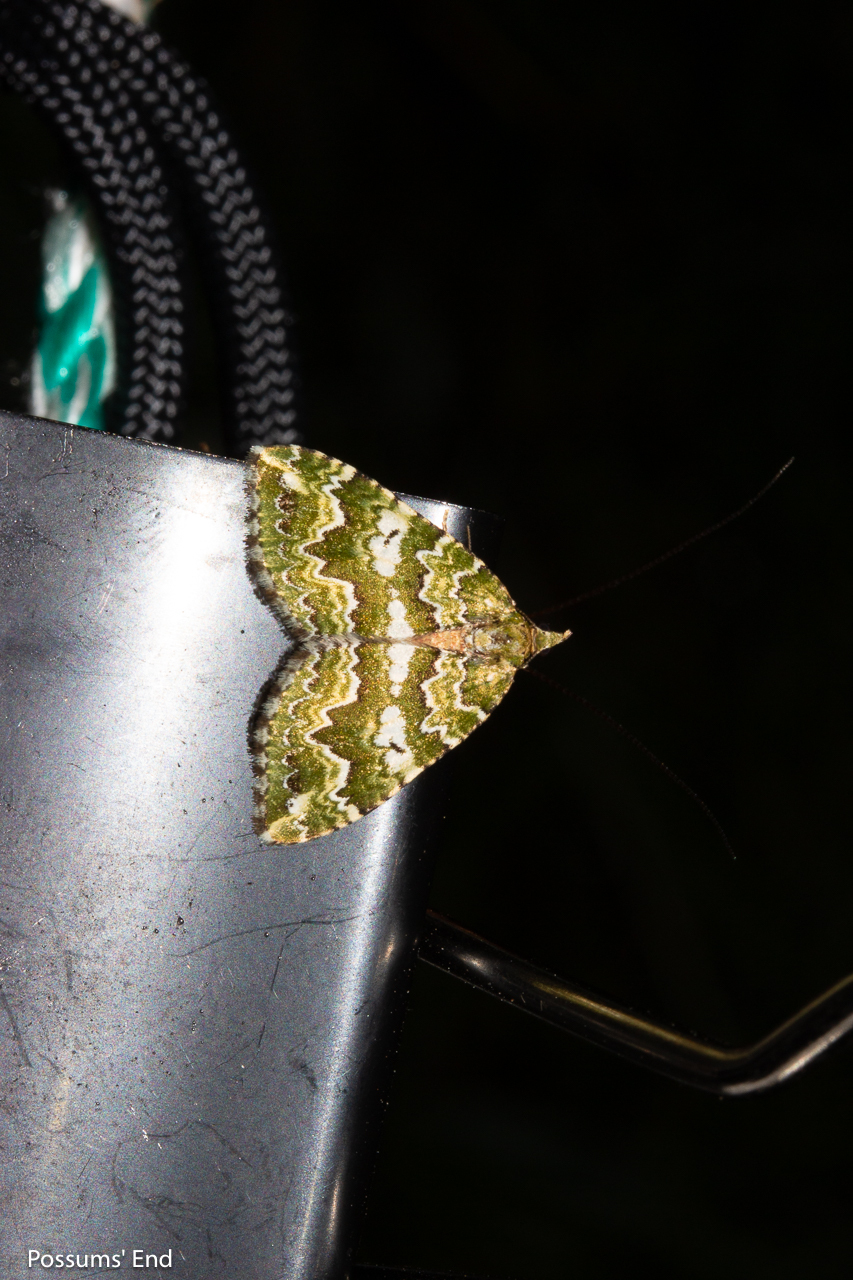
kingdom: Animalia
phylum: Arthropoda
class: Insecta
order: Lepidoptera
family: Geometridae
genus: Asaphodes
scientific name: Asaphodes beata
